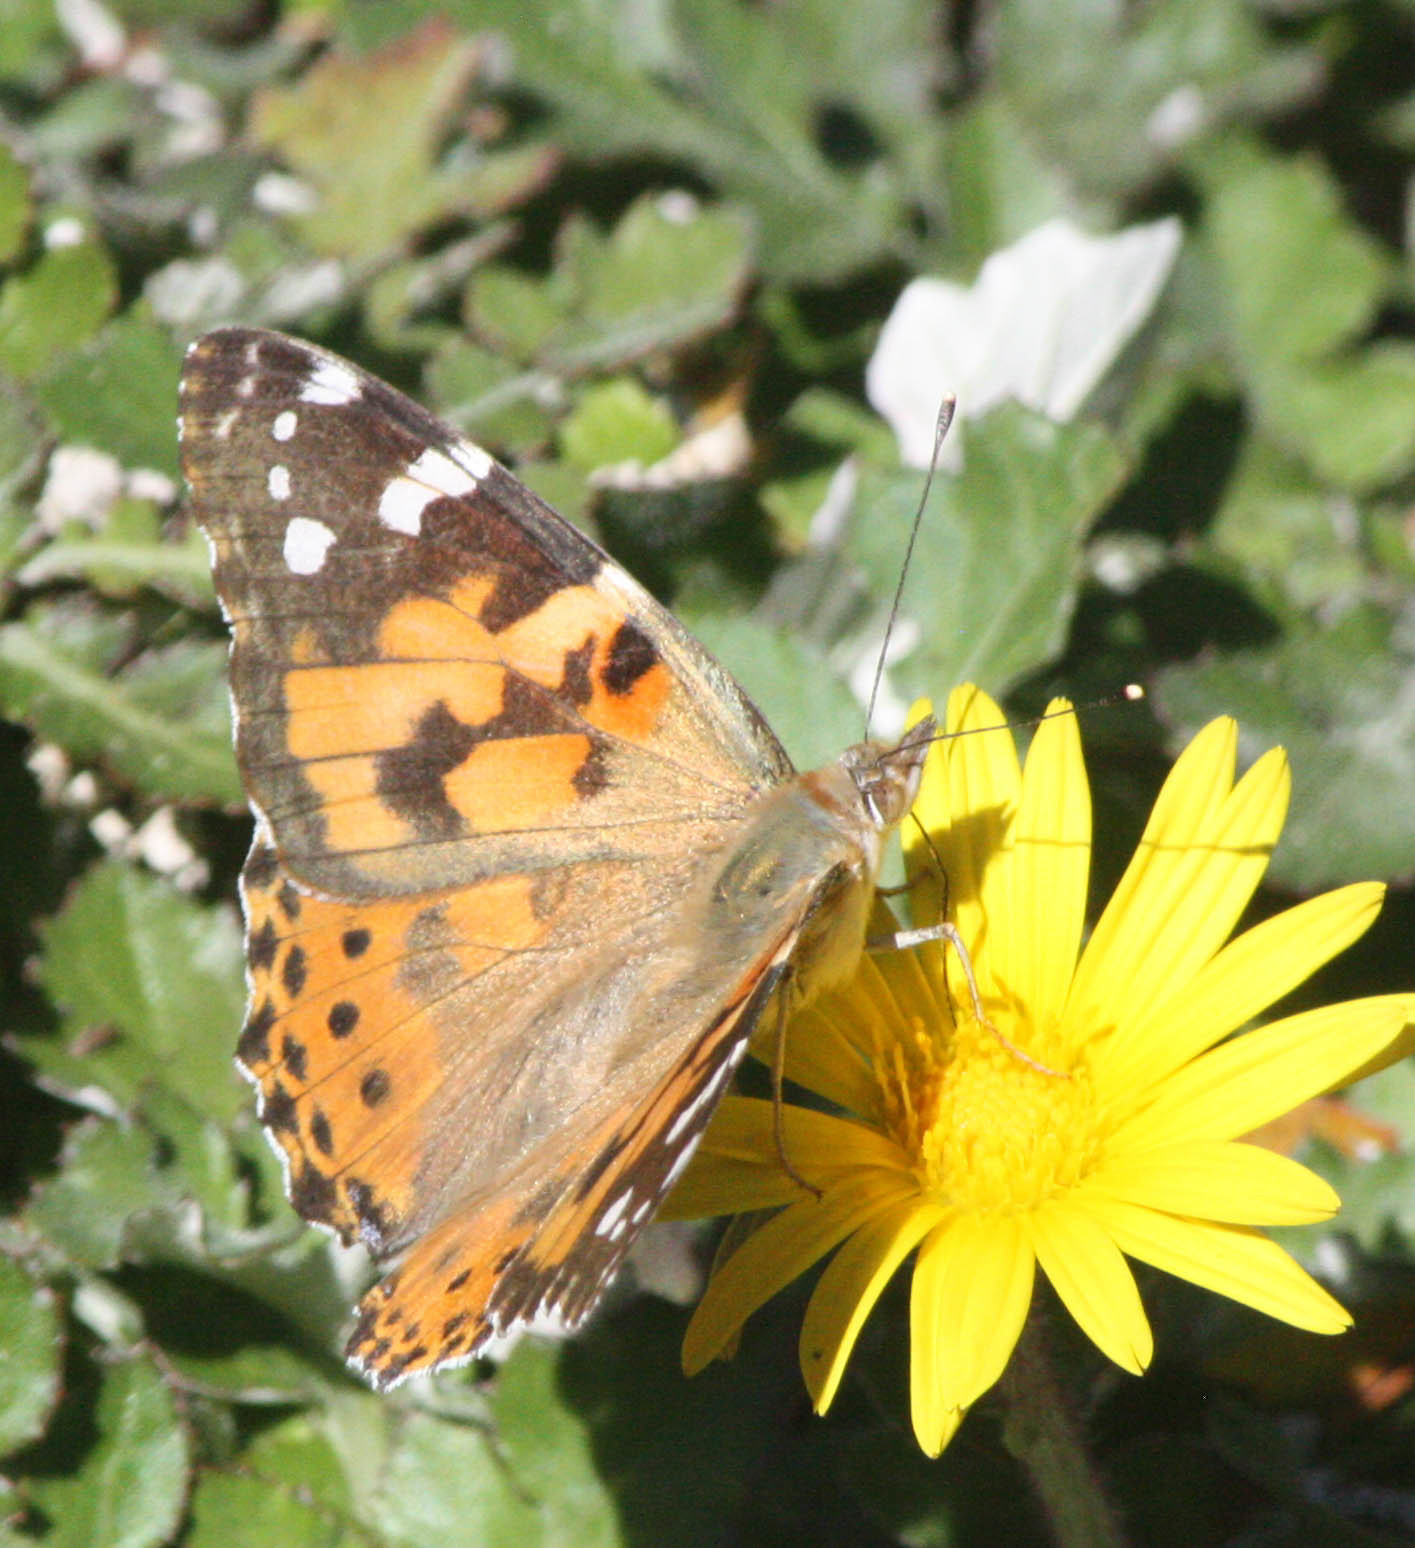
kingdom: Animalia
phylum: Arthropoda
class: Insecta
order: Lepidoptera
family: Nymphalidae
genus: Vanessa
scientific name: Vanessa cardui
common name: Painted lady
